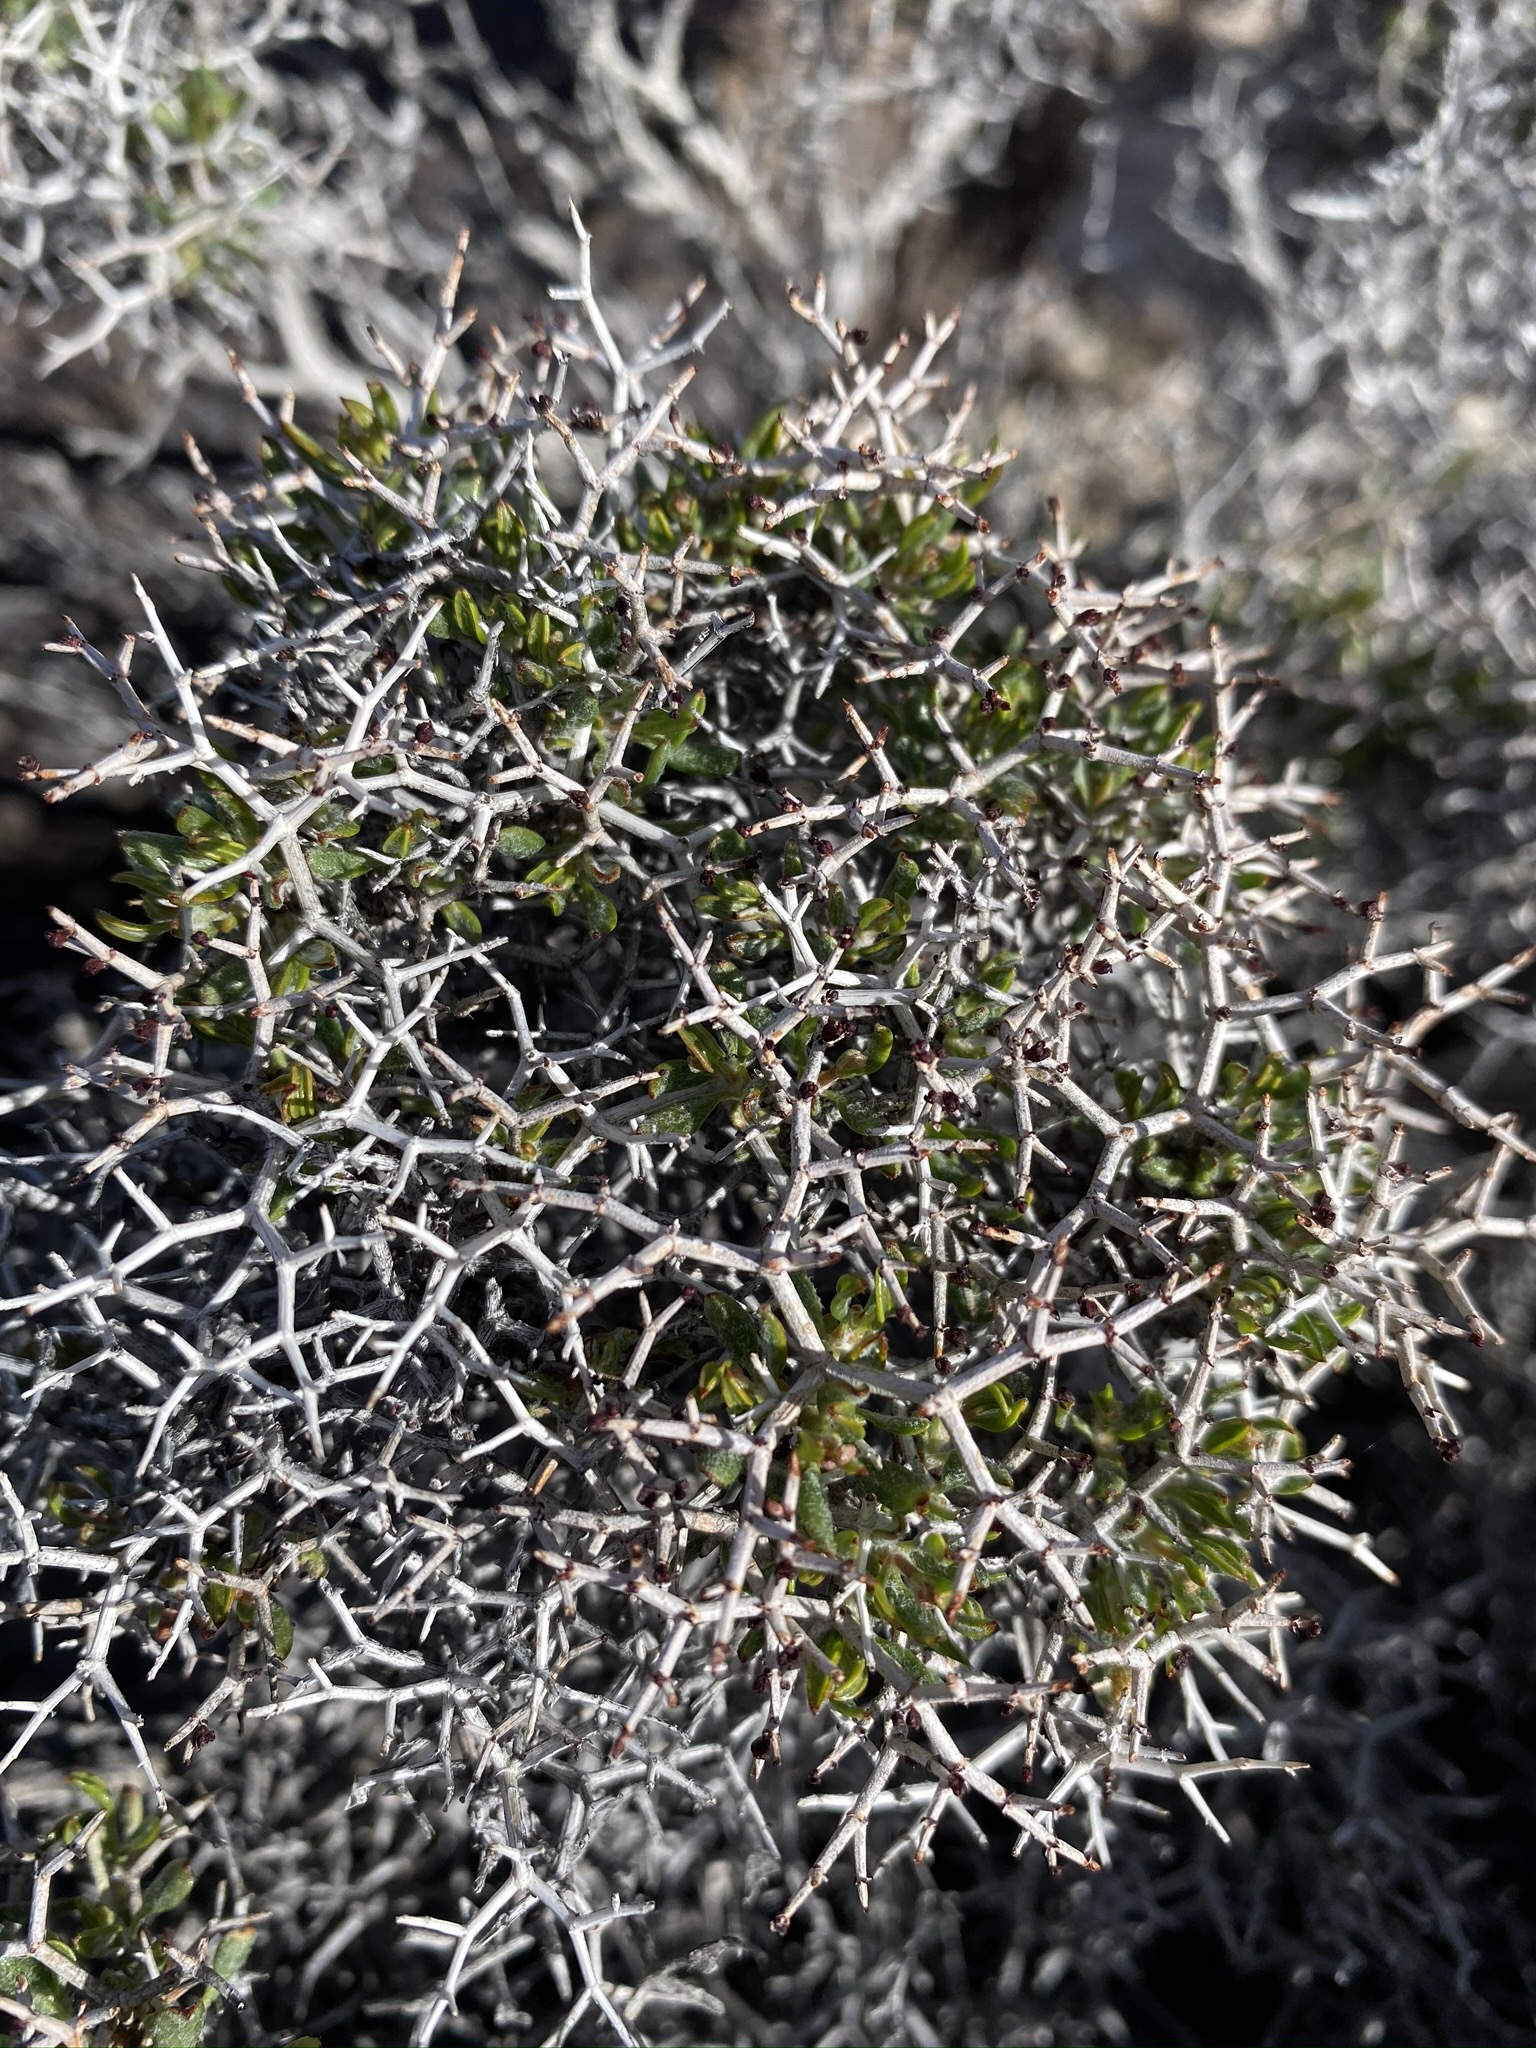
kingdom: Plantae
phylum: Tracheophyta
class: Magnoliopsida
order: Caryophyllales
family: Polygonaceae
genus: Eriogonum
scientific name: Eriogonum heermannii
